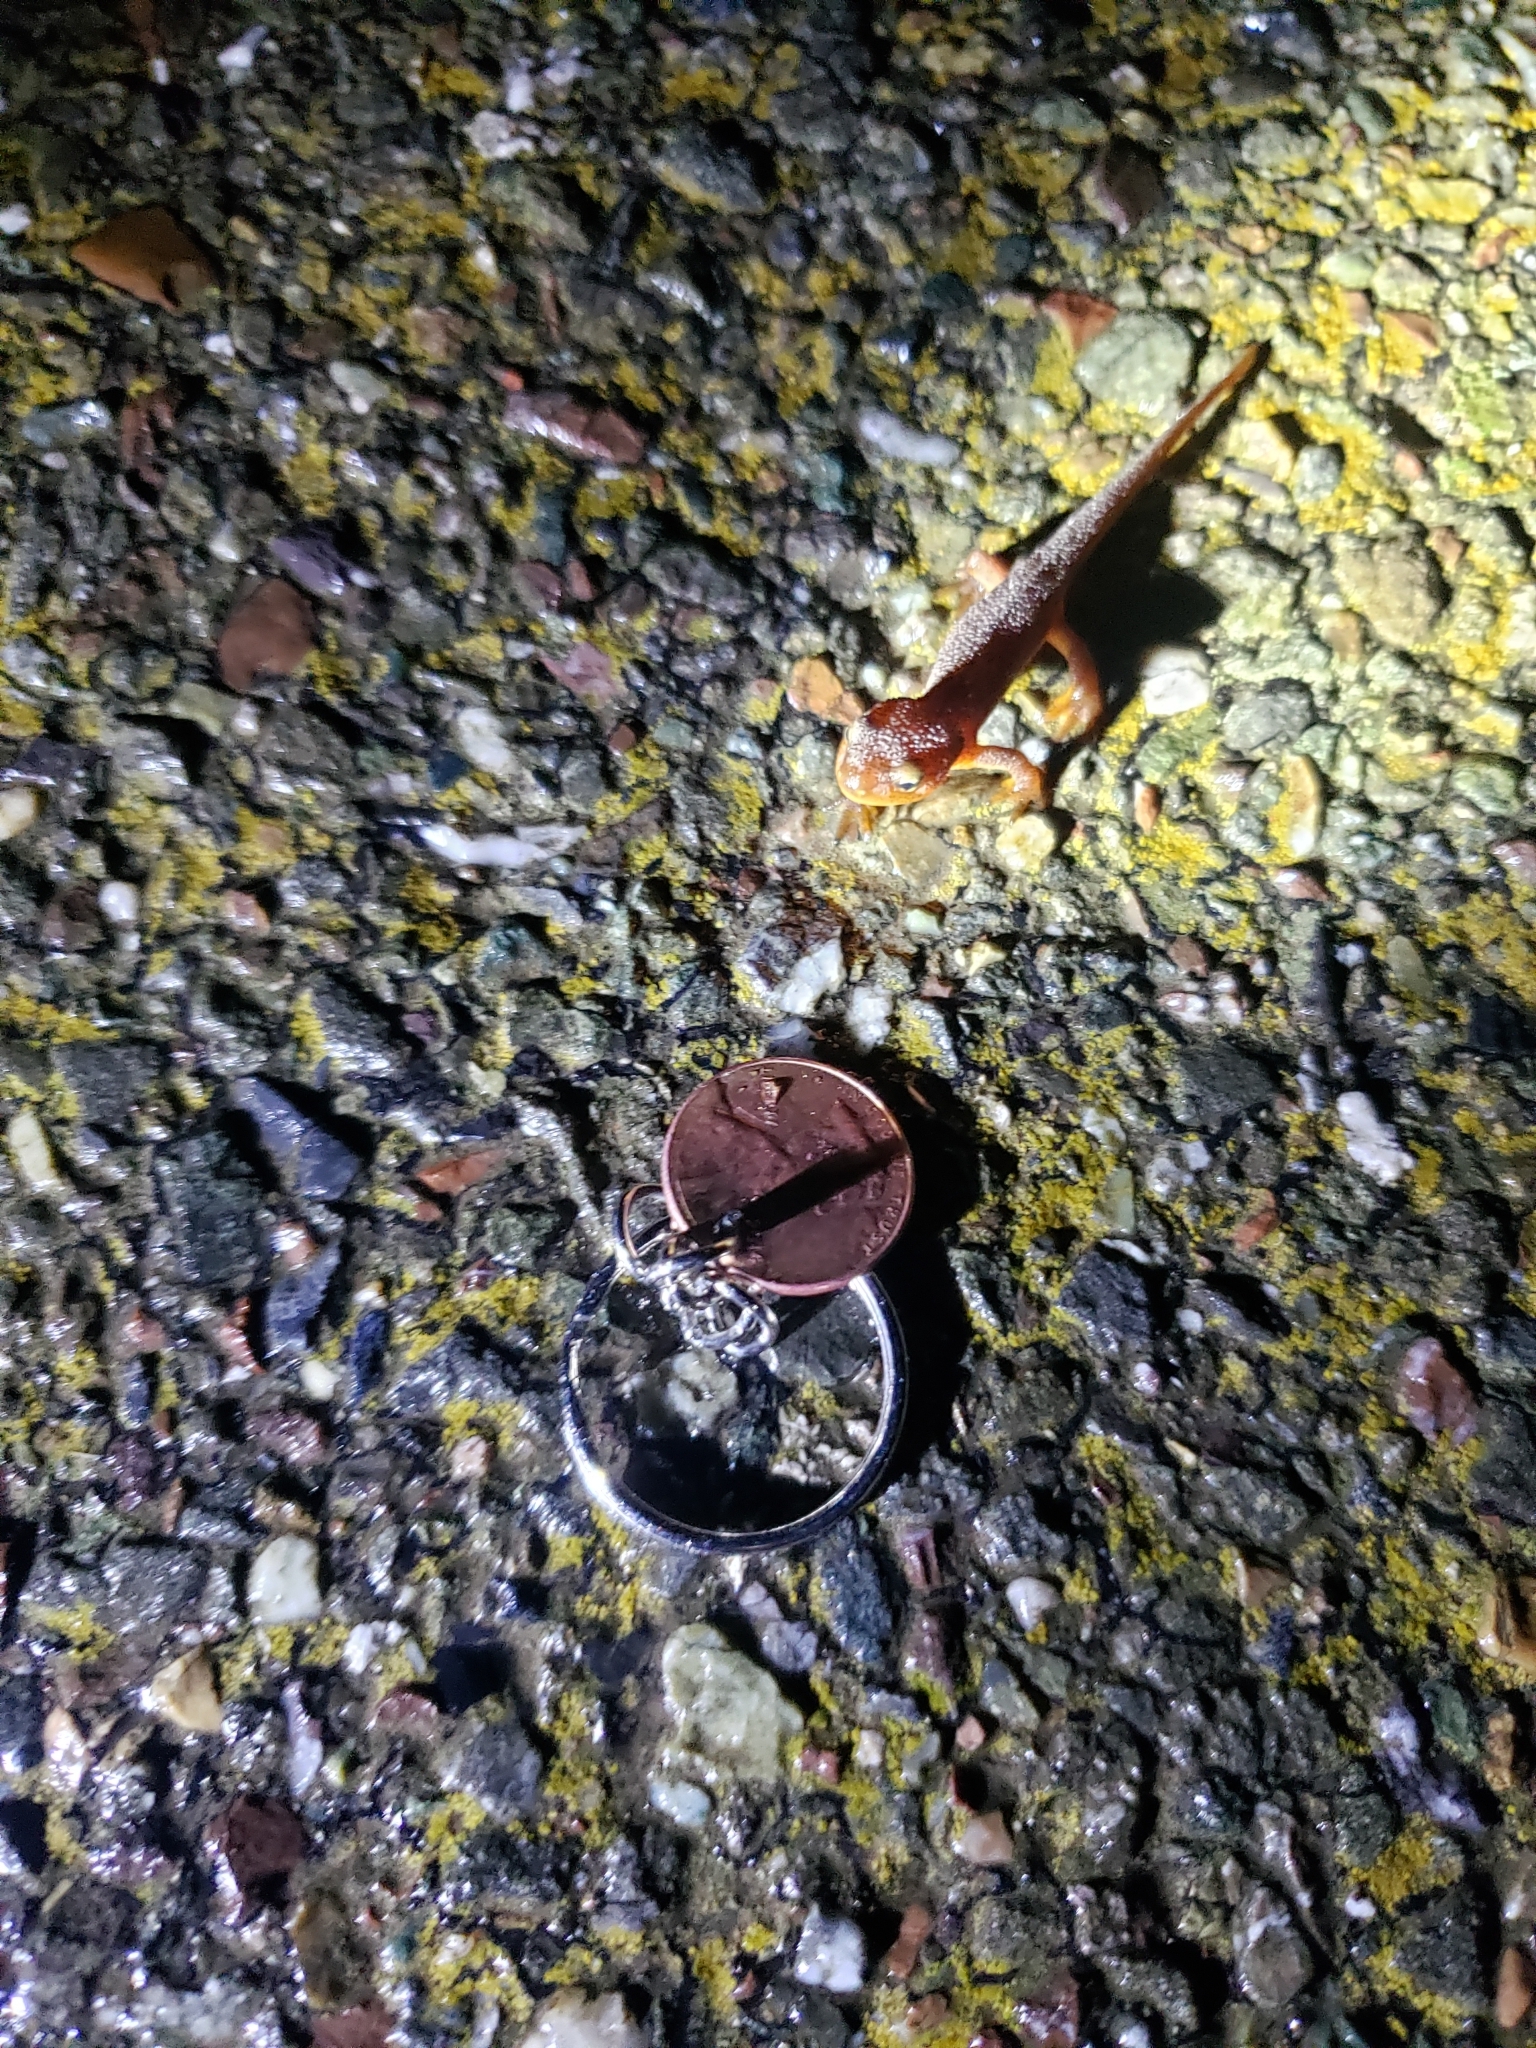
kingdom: Animalia
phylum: Chordata
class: Amphibia
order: Caudata
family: Salamandridae
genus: Taricha
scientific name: Taricha torosa
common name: California newt
